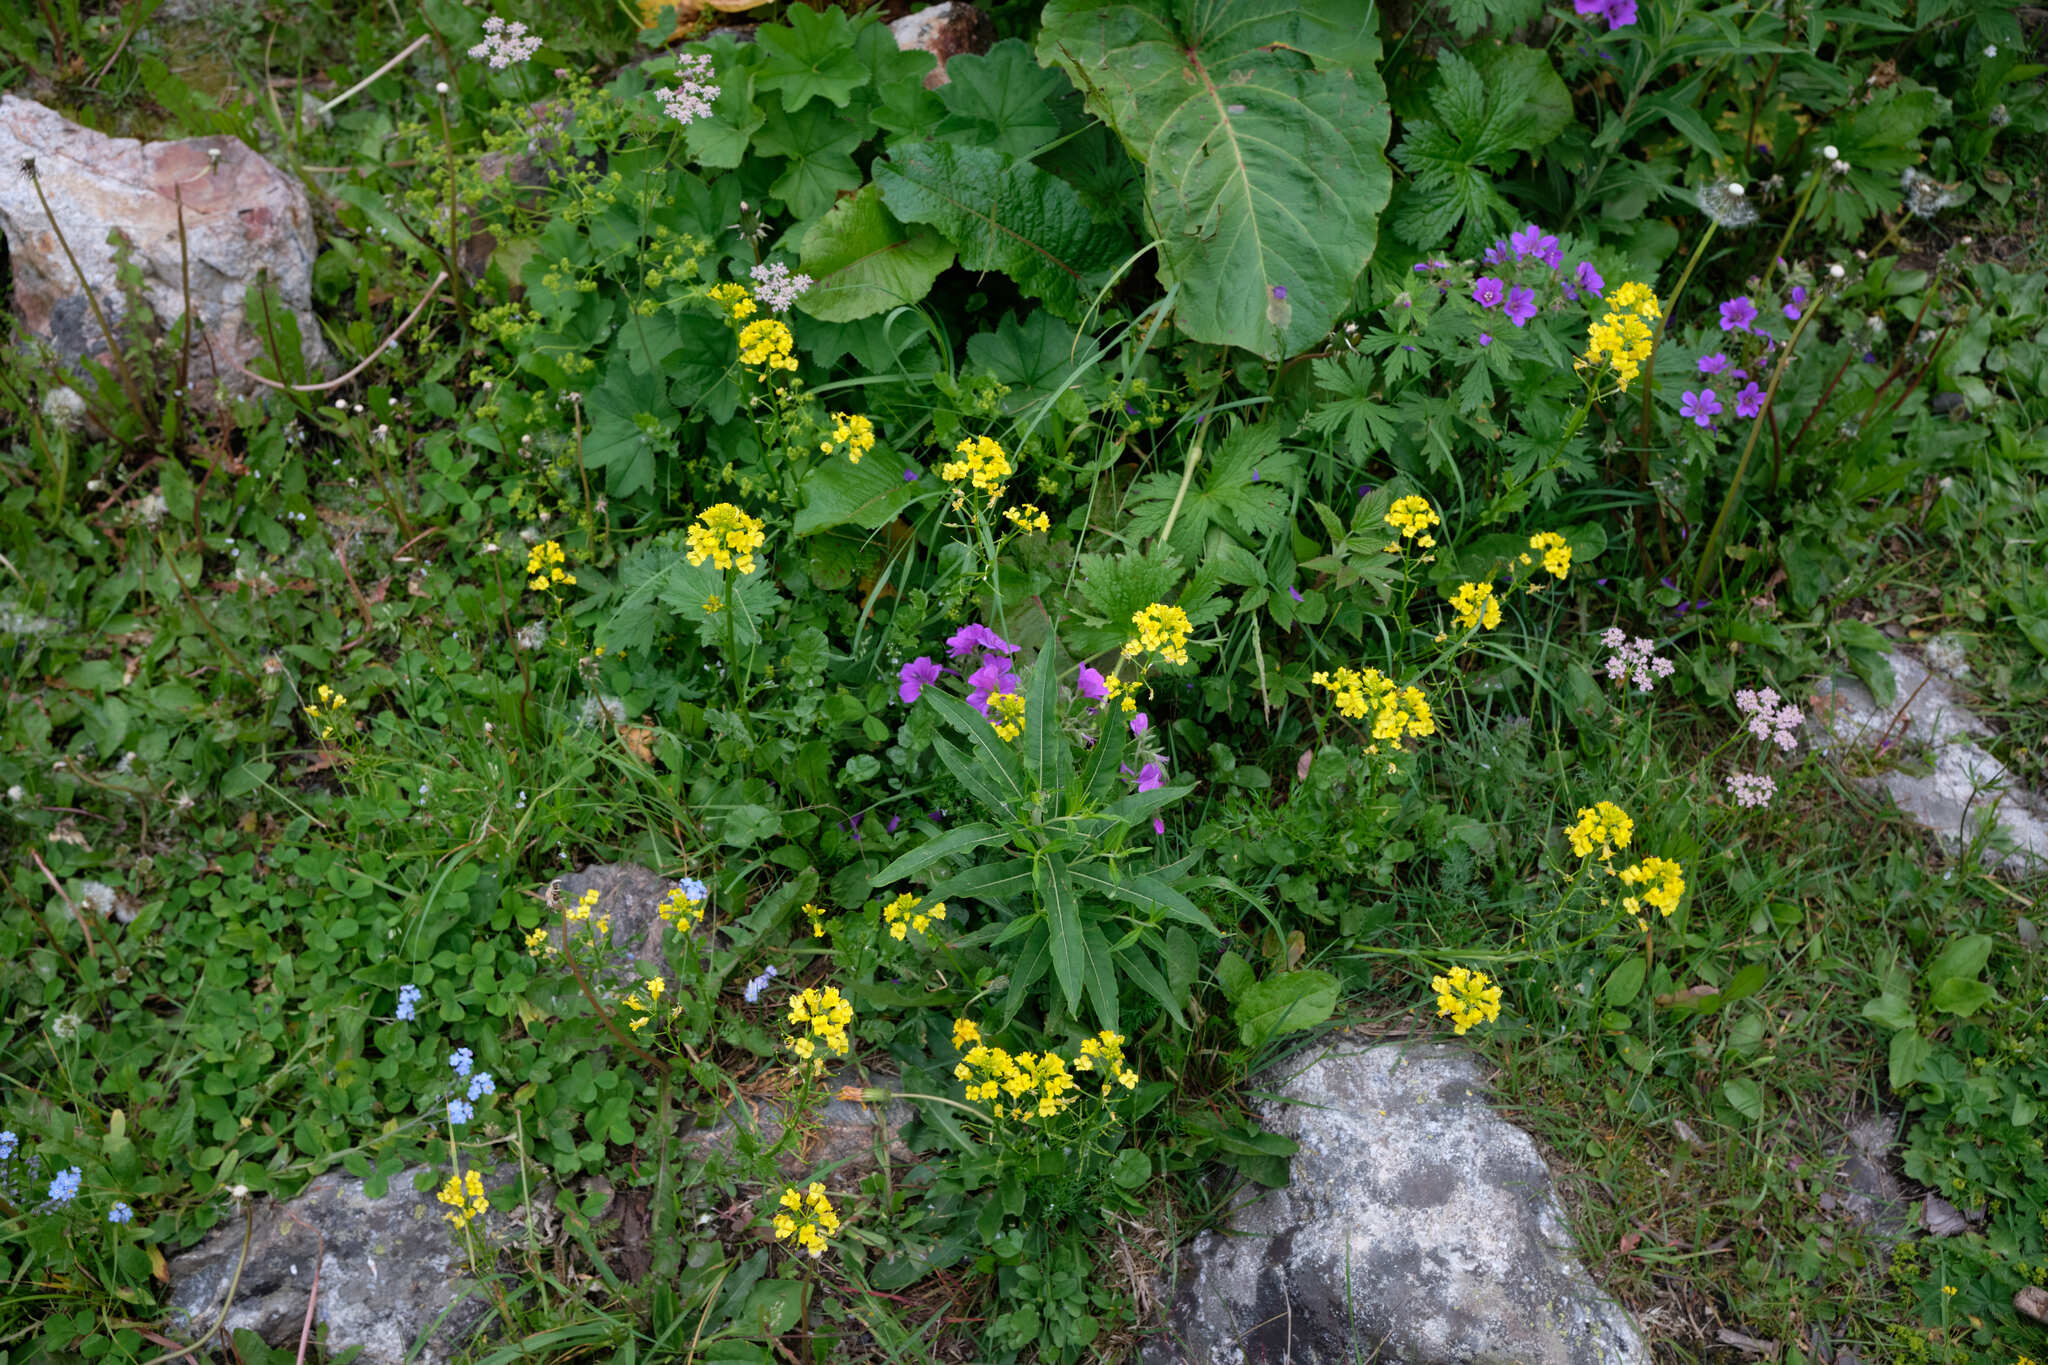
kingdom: Plantae
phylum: Tracheophyta
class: Magnoliopsida
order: Brassicales
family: Brassicaceae
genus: Barbarea
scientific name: Barbarea vulgaris
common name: Cressy-greens
